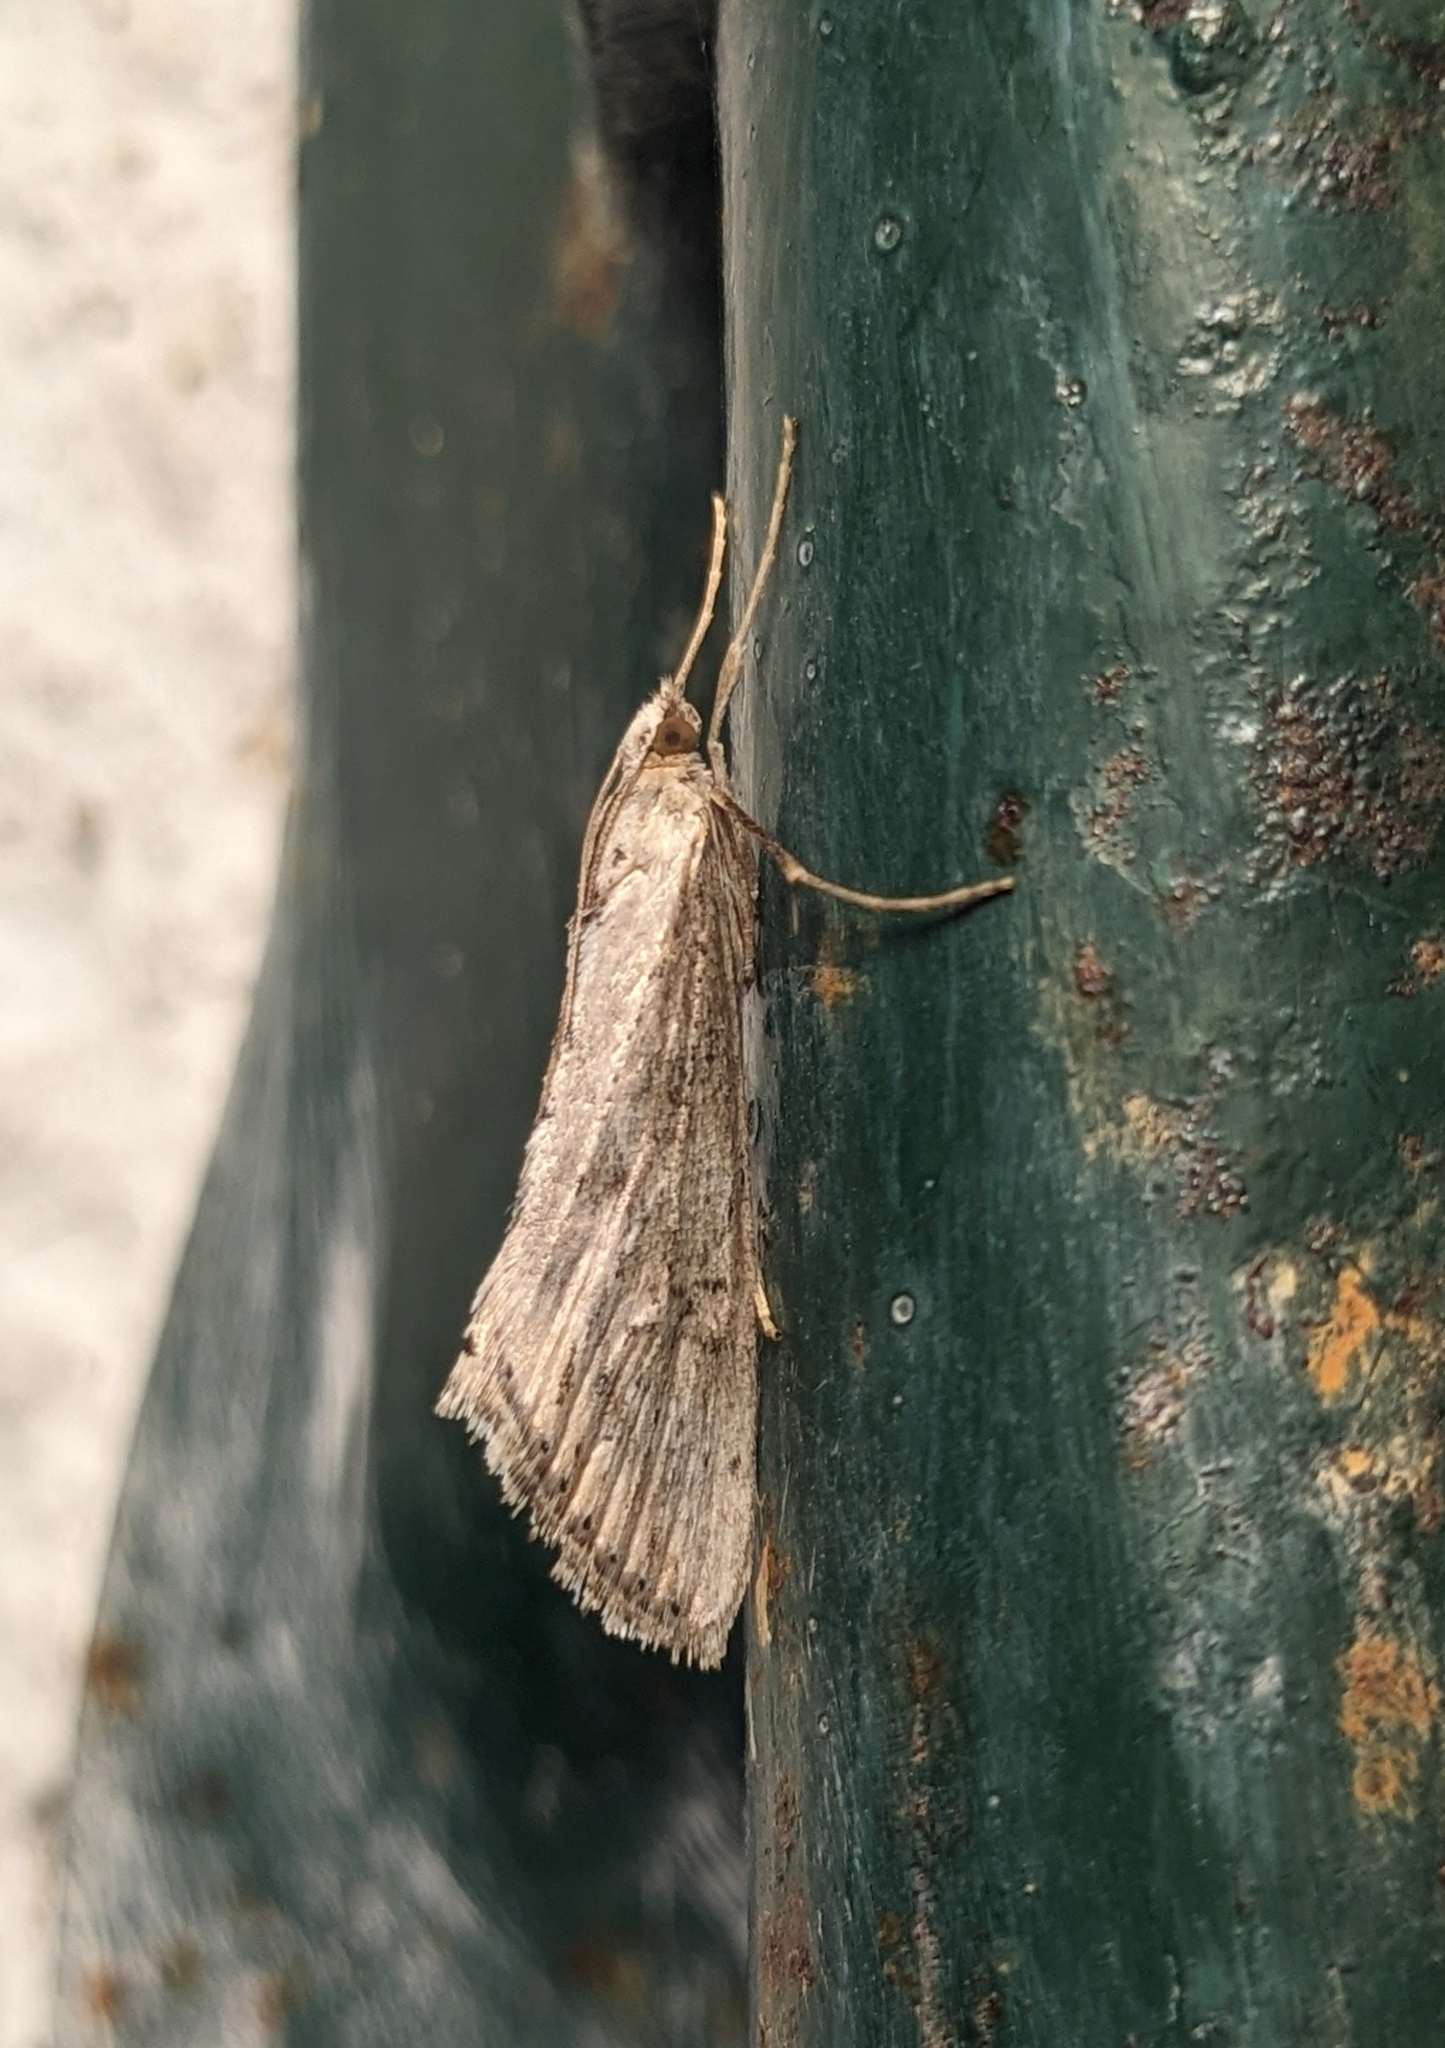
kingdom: Animalia
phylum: Arthropoda
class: Insecta
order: Lepidoptera
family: Crambidae
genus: Evergestis
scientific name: Evergestis isatidalis
